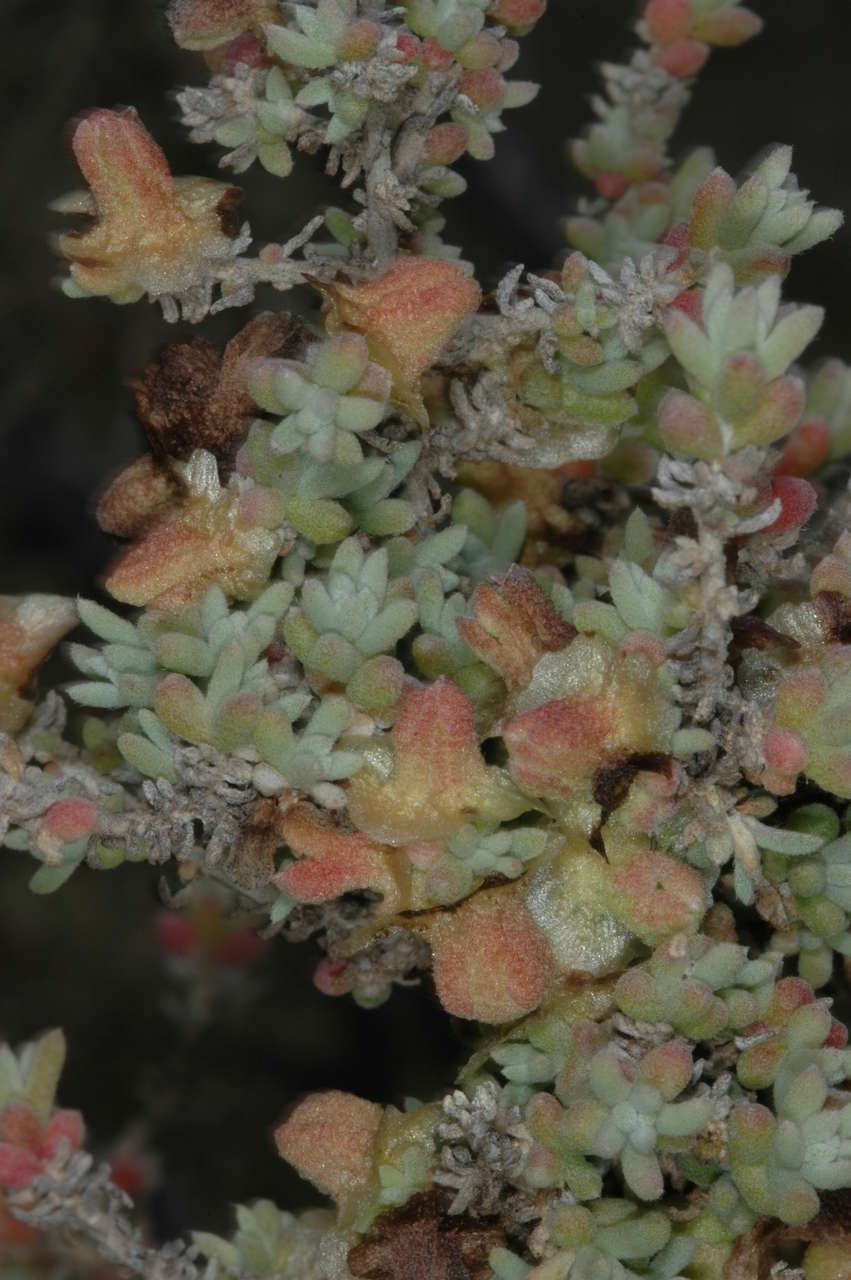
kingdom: Plantae
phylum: Tracheophyta
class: Magnoliopsida
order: Caryophyllales
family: Amaranthaceae
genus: Maireana
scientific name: Maireana pyramidata
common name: Sagobush
